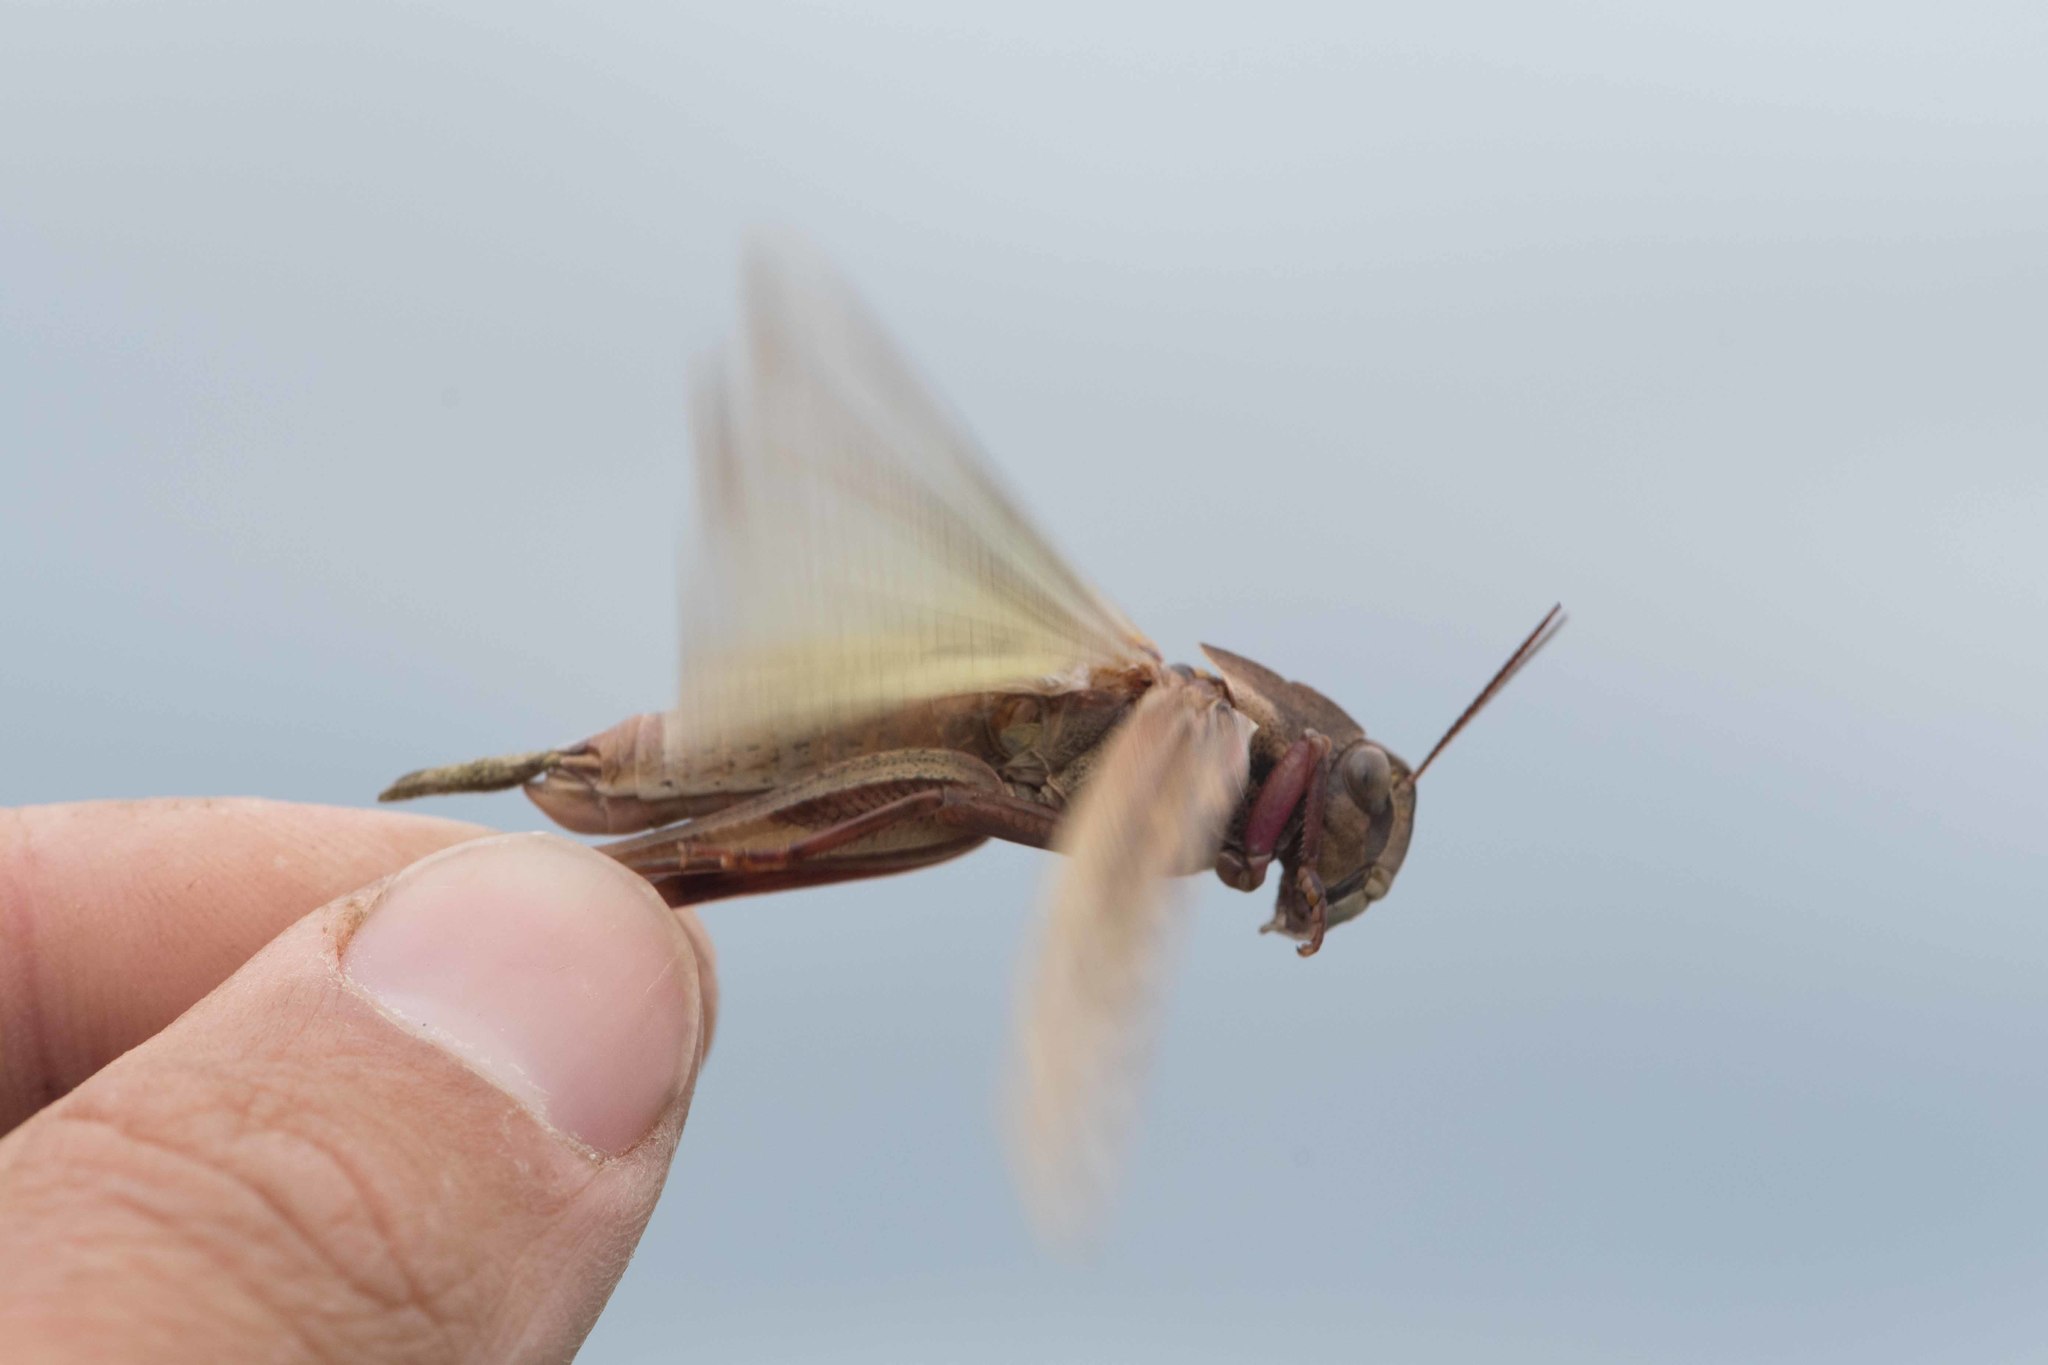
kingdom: Animalia
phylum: Arthropoda
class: Insecta
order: Orthoptera
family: Acrididae
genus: Locusta
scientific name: Locusta migratoria
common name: Migratory locust
